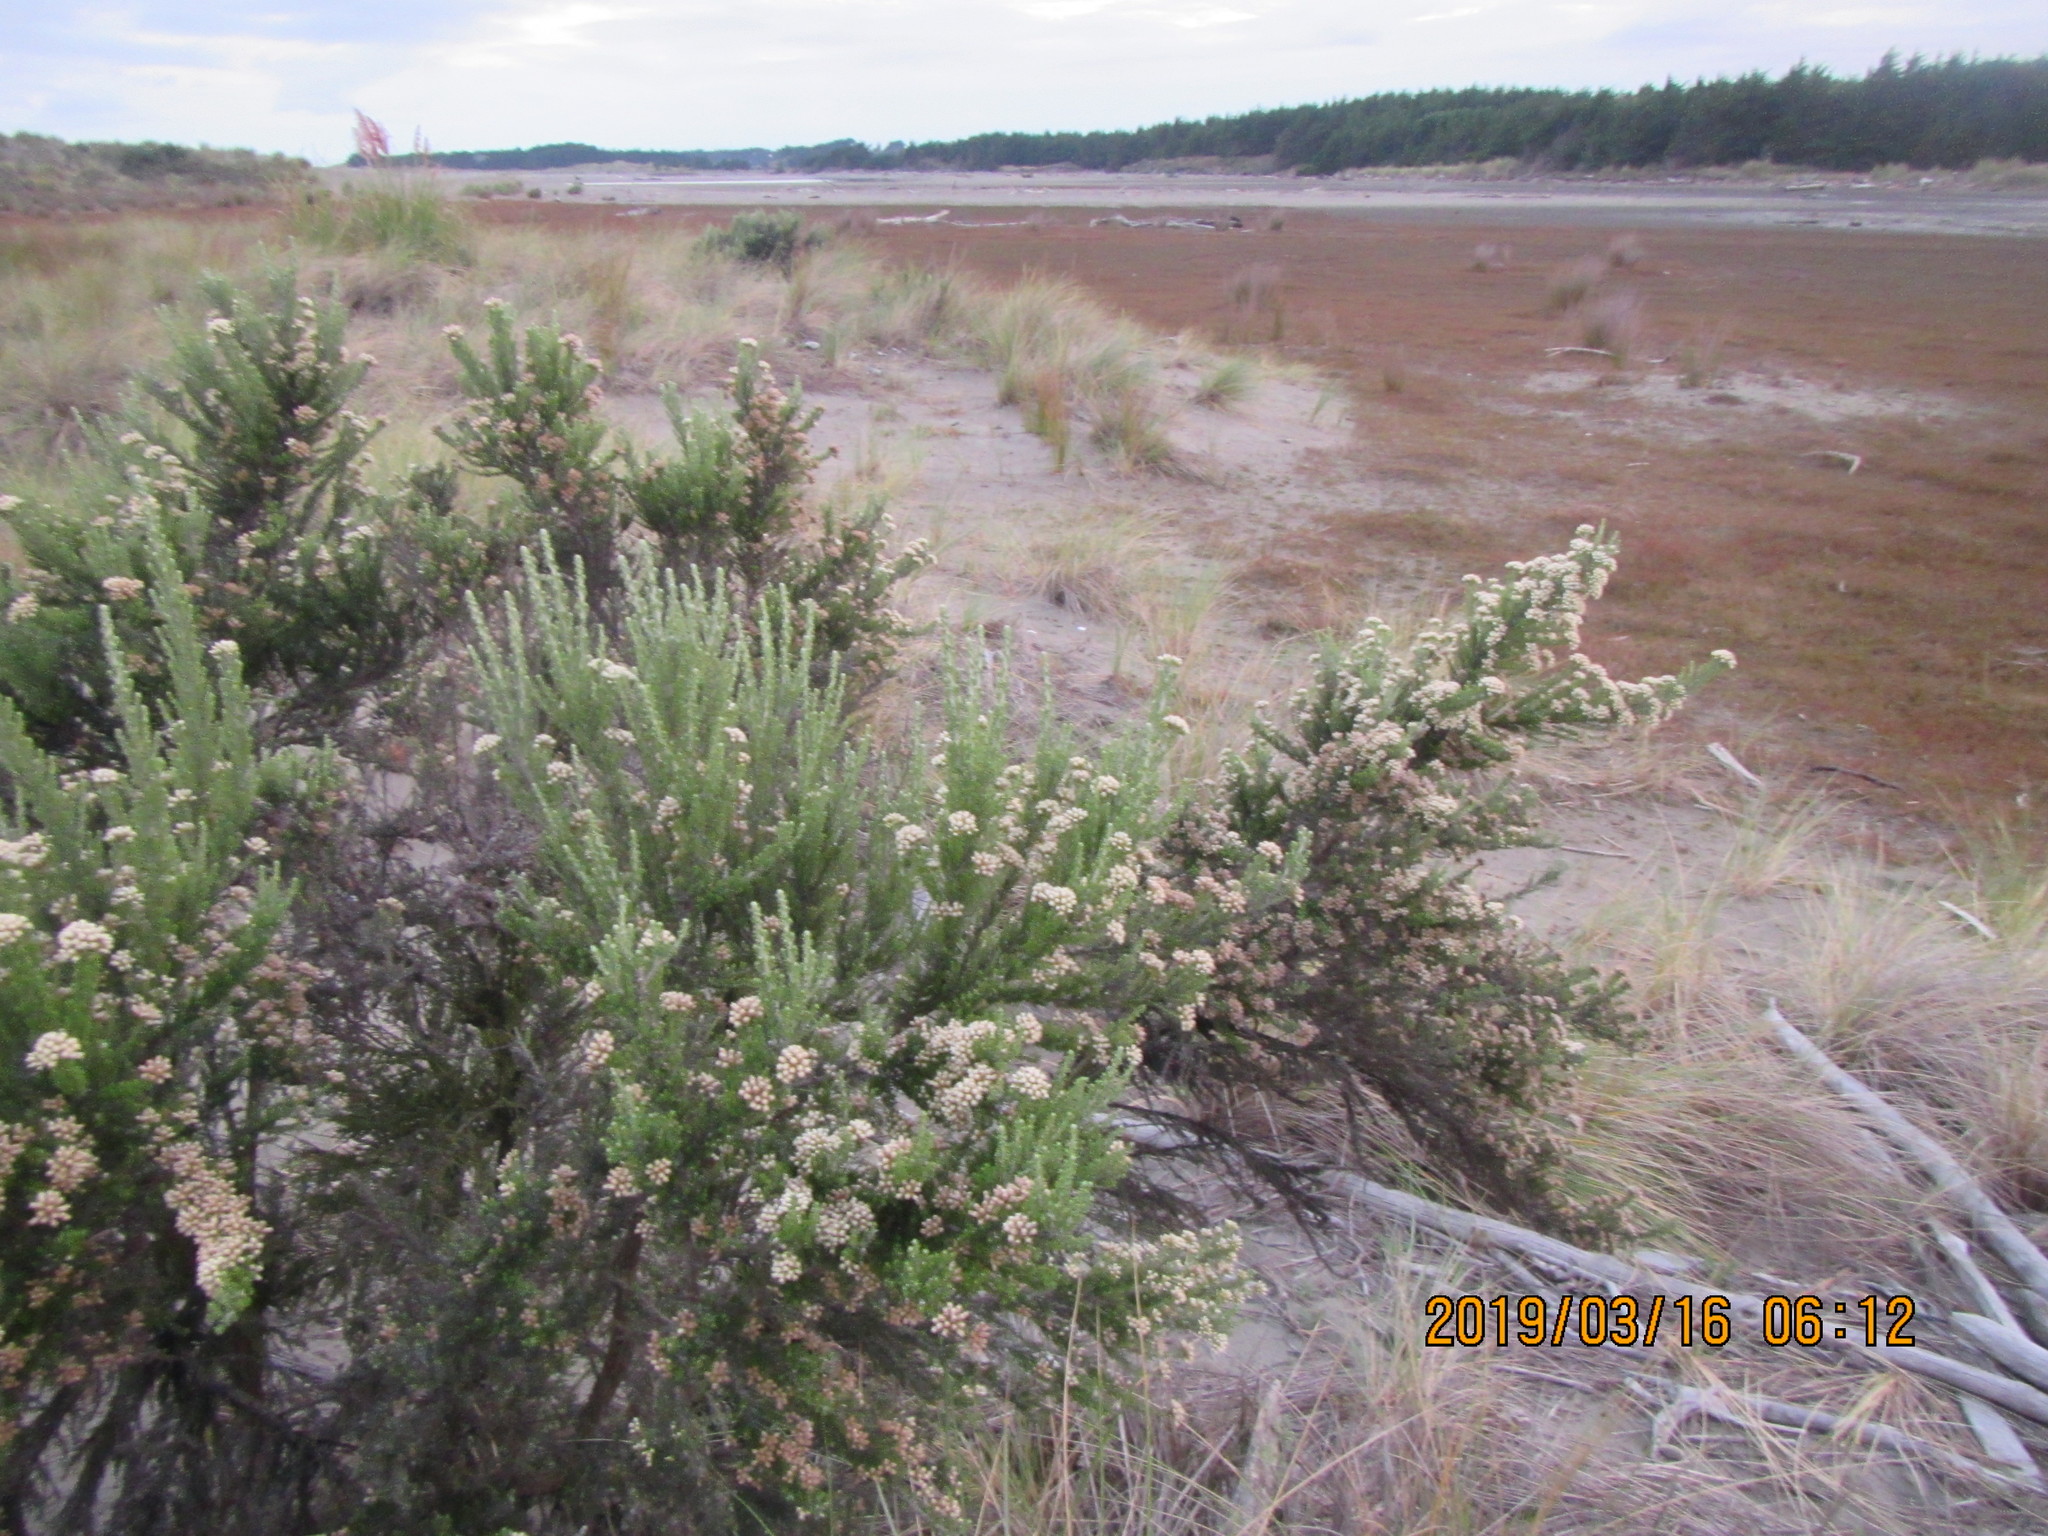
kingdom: Plantae
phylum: Tracheophyta
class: Magnoliopsida
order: Asterales
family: Asteraceae
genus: Ozothamnus
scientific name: Ozothamnus leptophyllus
